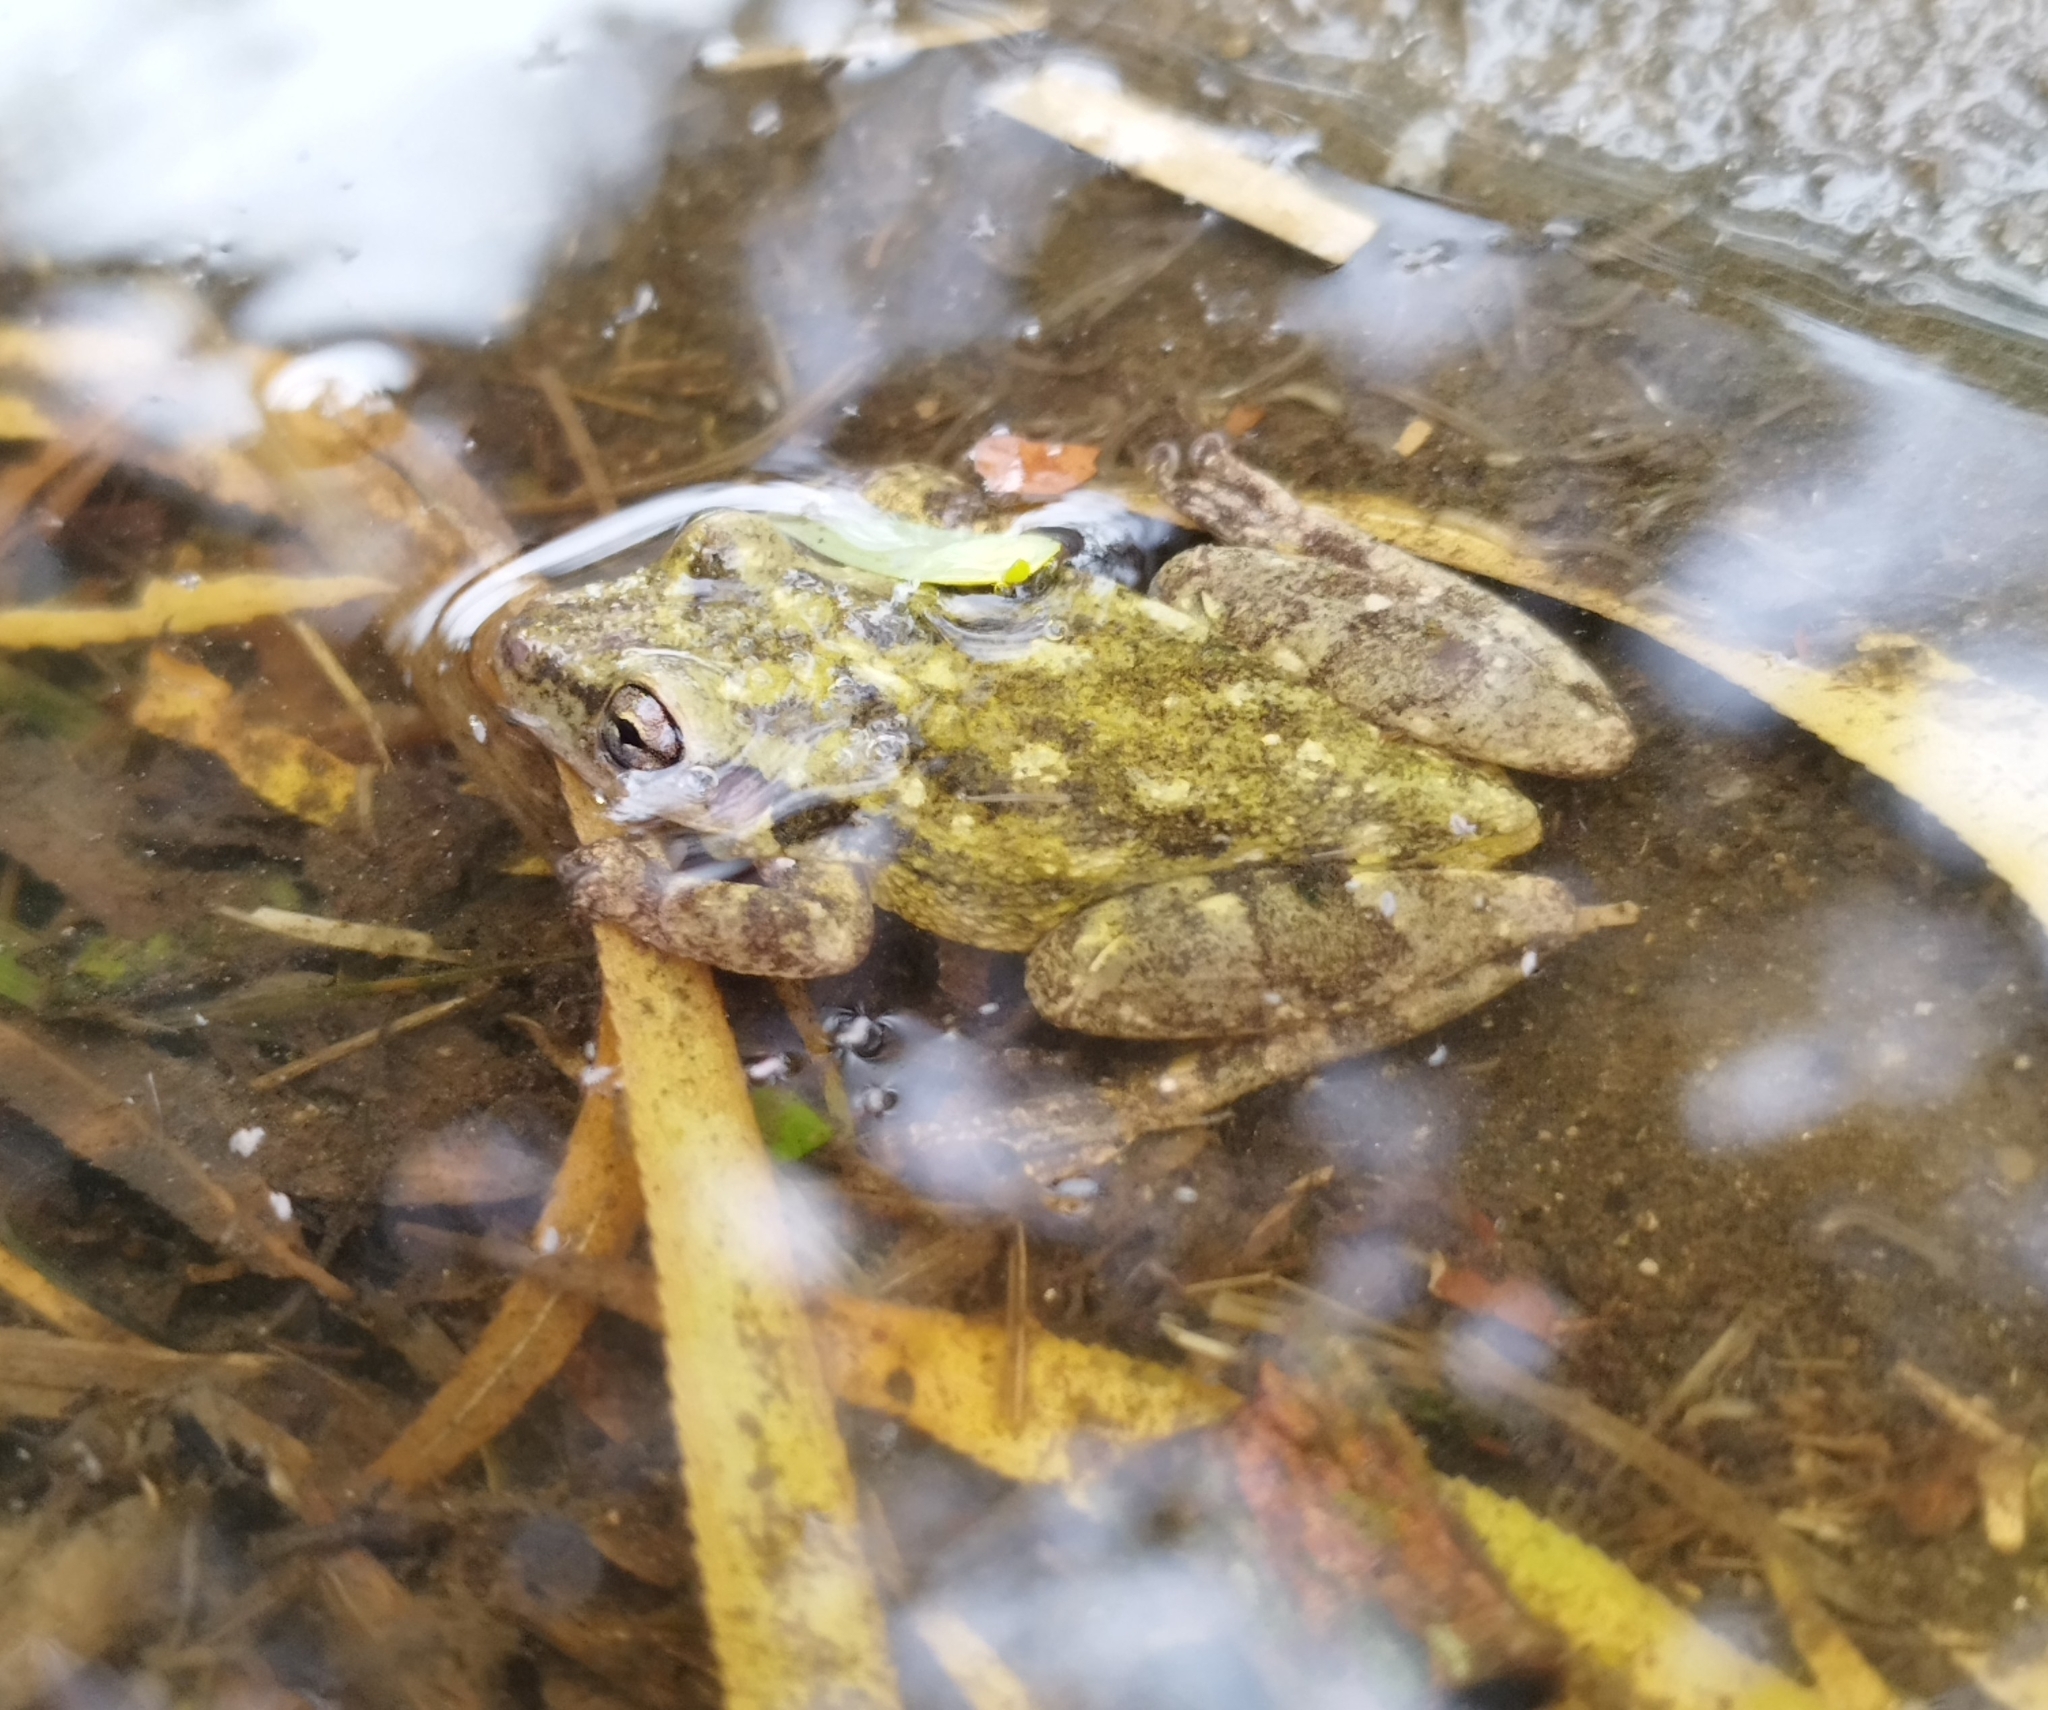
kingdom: Animalia
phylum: Chordata
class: Amphibia
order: Anura
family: Hylidae
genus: Scinax
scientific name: Scinax granulatus
